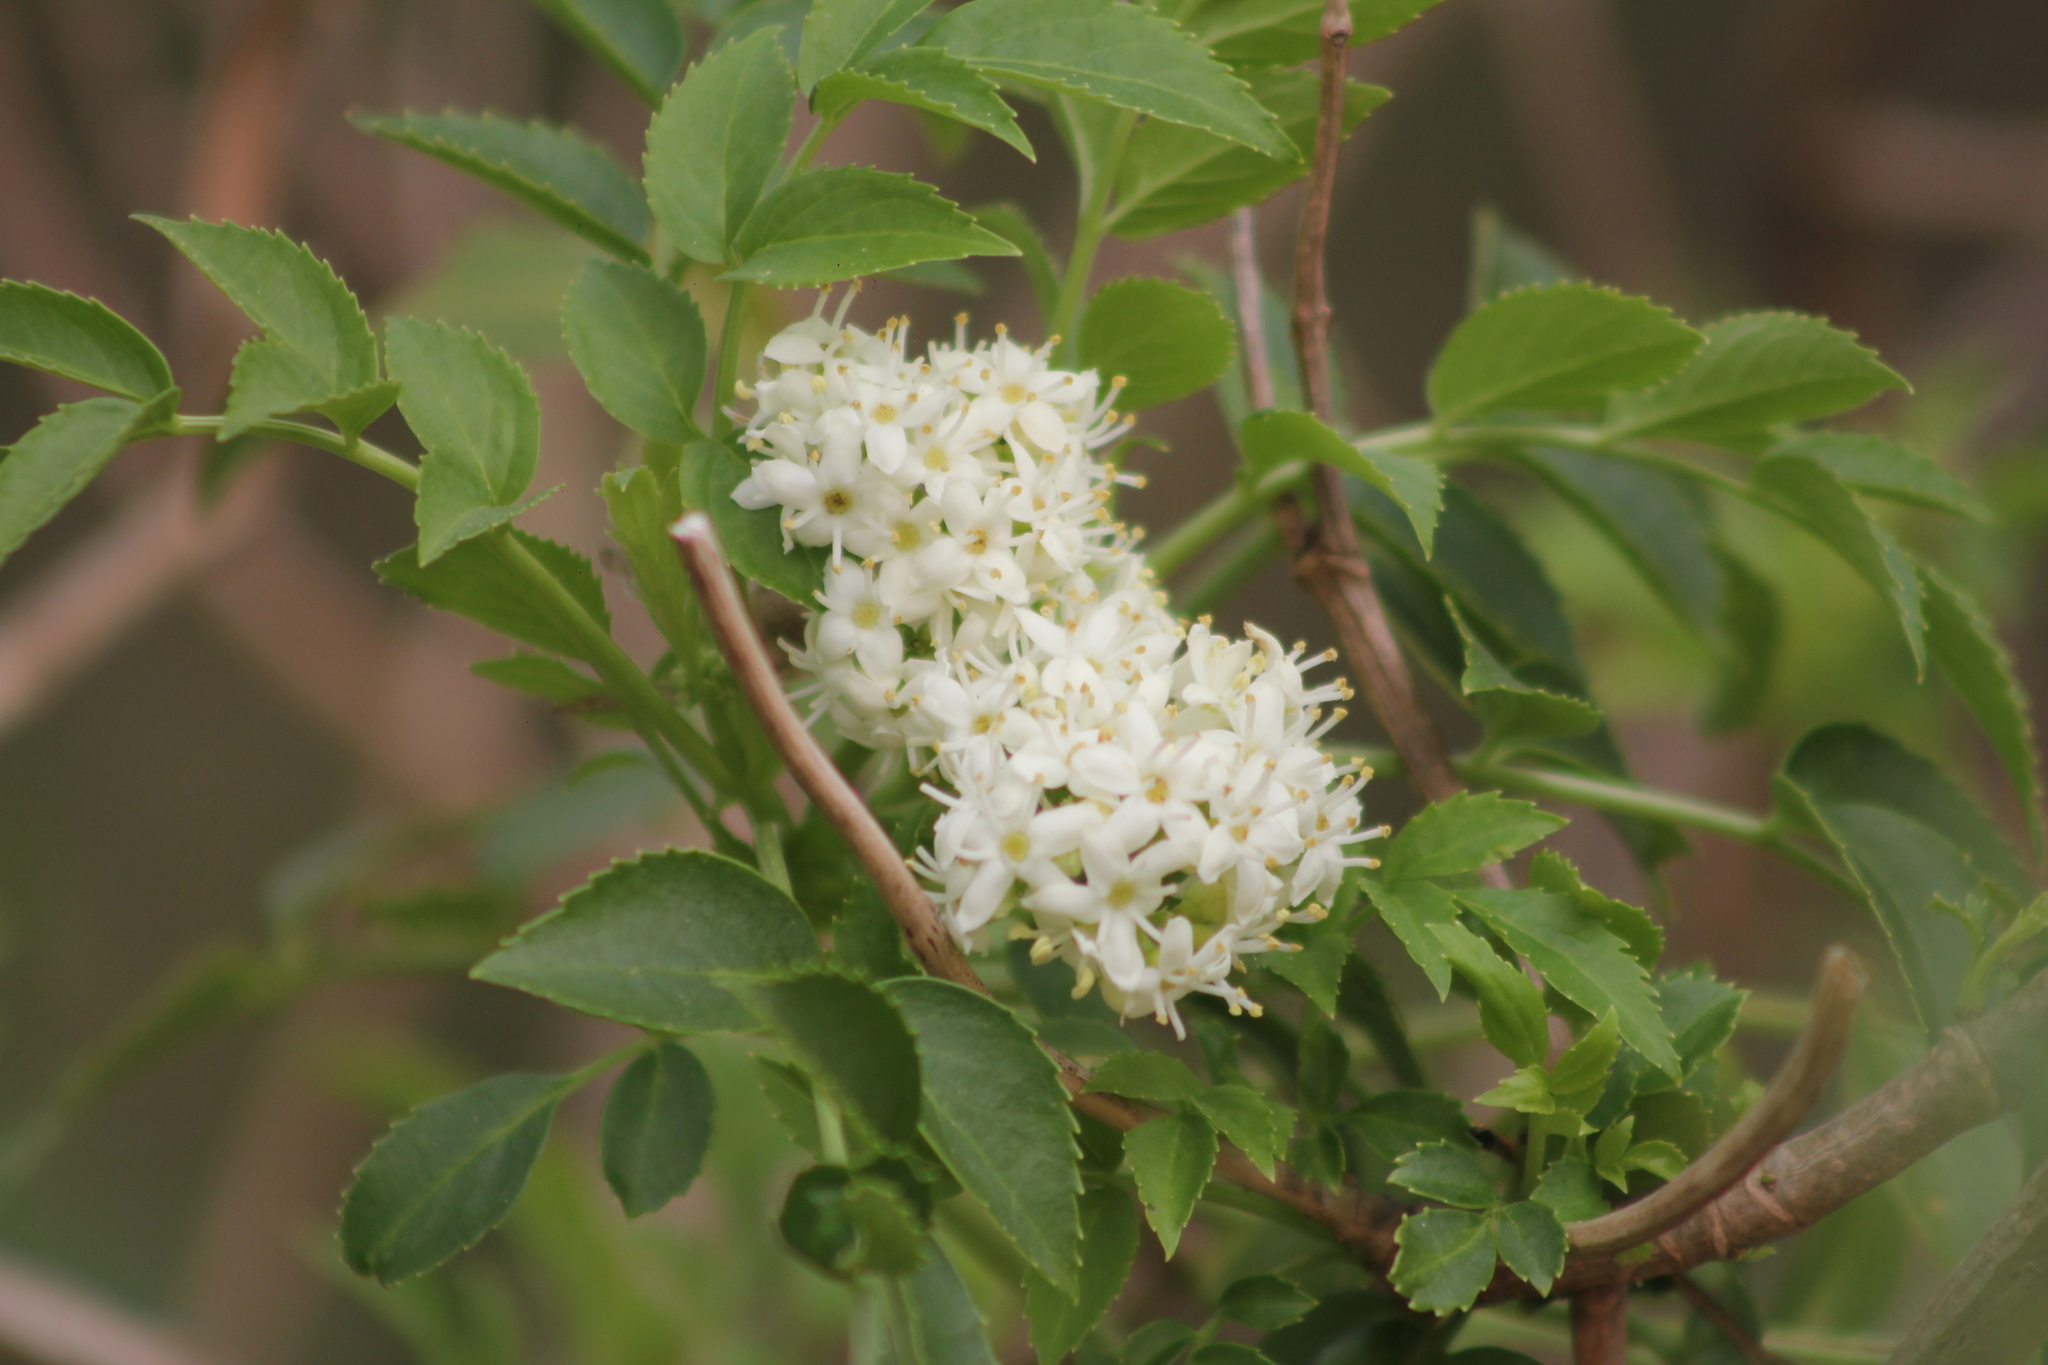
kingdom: Plantae
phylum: Tracheophyta
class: Magnoliopsida
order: Dipsacales
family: Viburnaceae
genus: Sambucus
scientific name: Sambucus australis
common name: Southern elder
